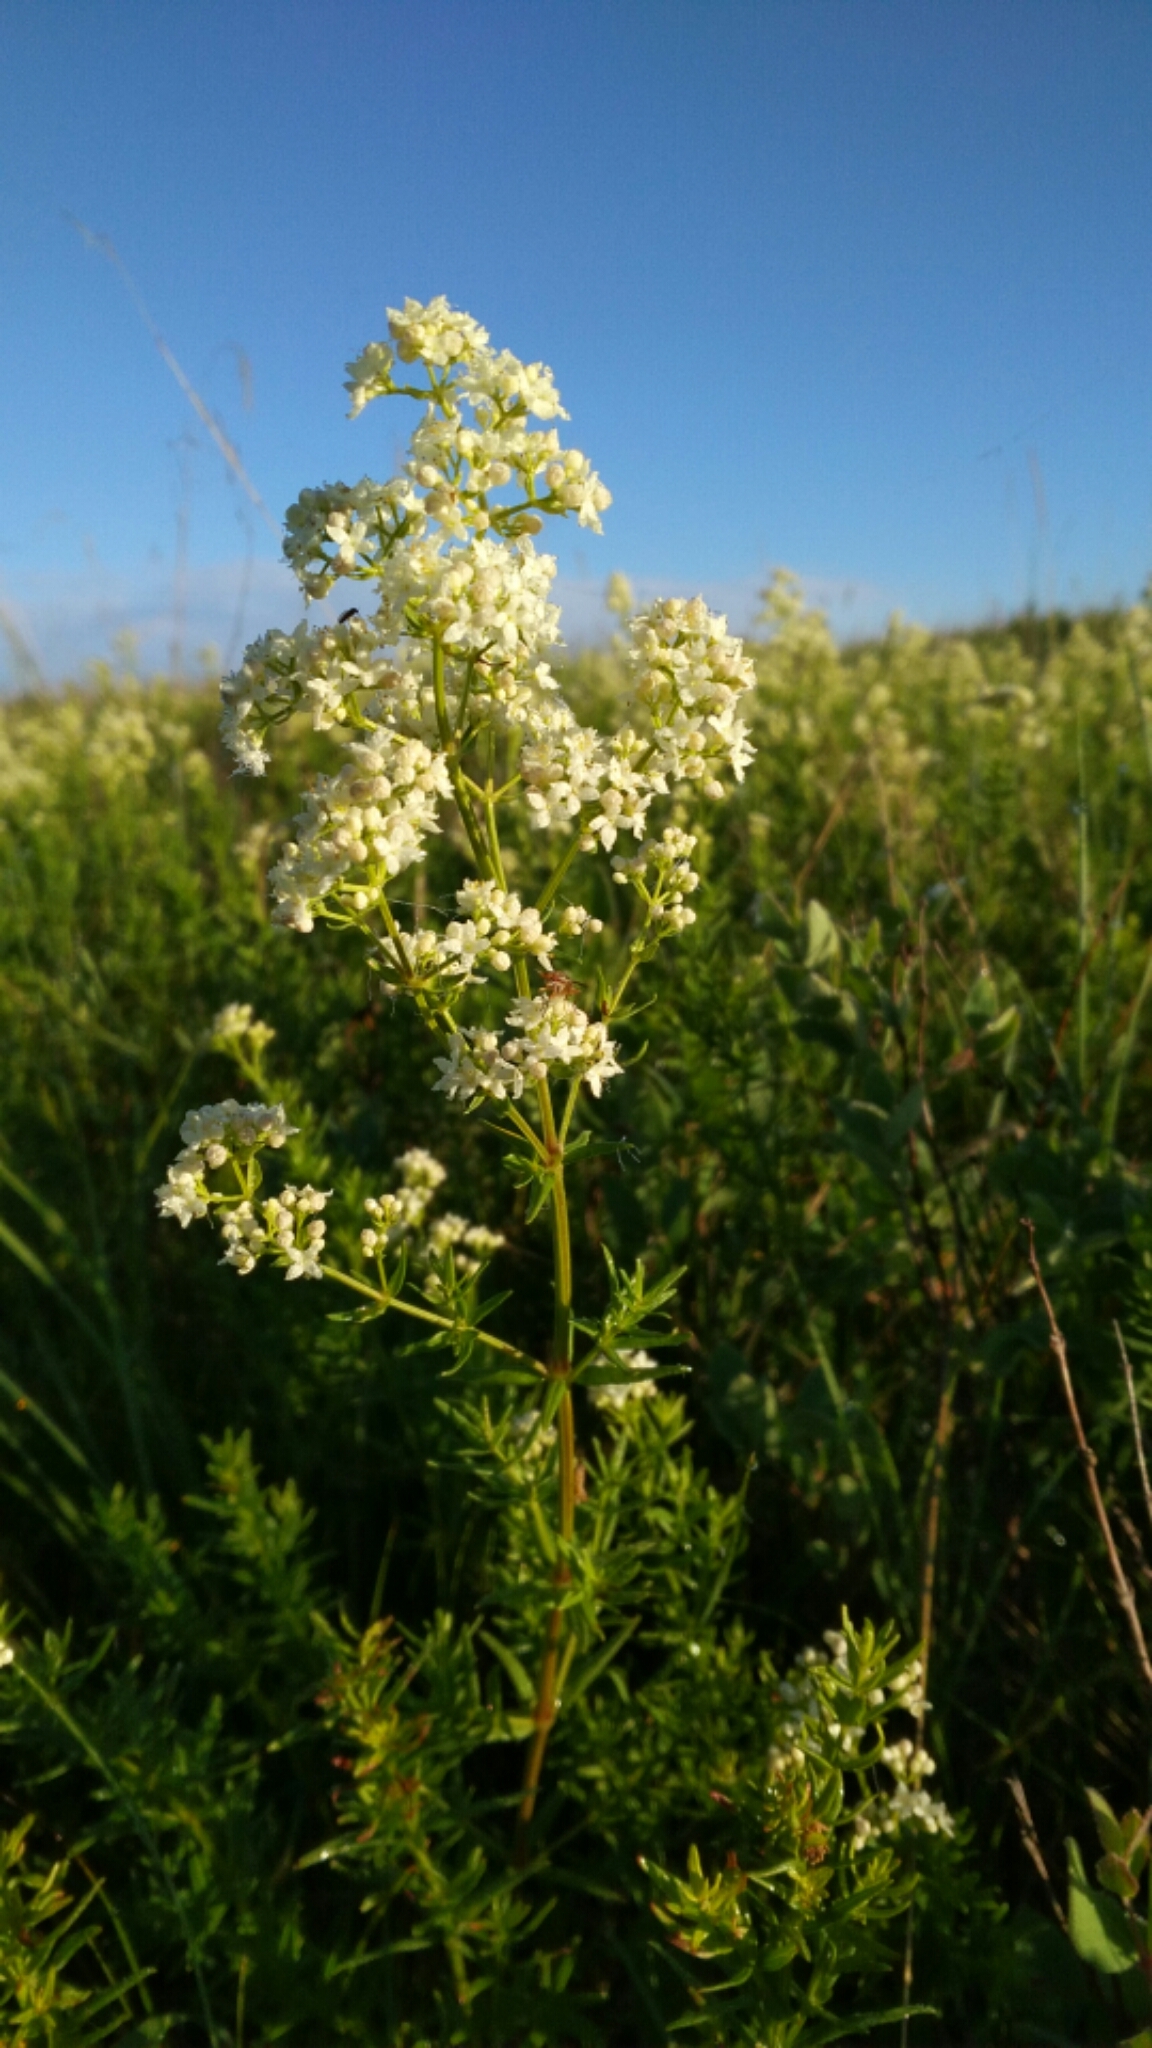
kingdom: Plantae
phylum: Tracheophyta
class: Magnoliopsida
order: Gentianales
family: Rubiaceae
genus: Galium
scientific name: Galium boreale
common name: Northern bedstraw
